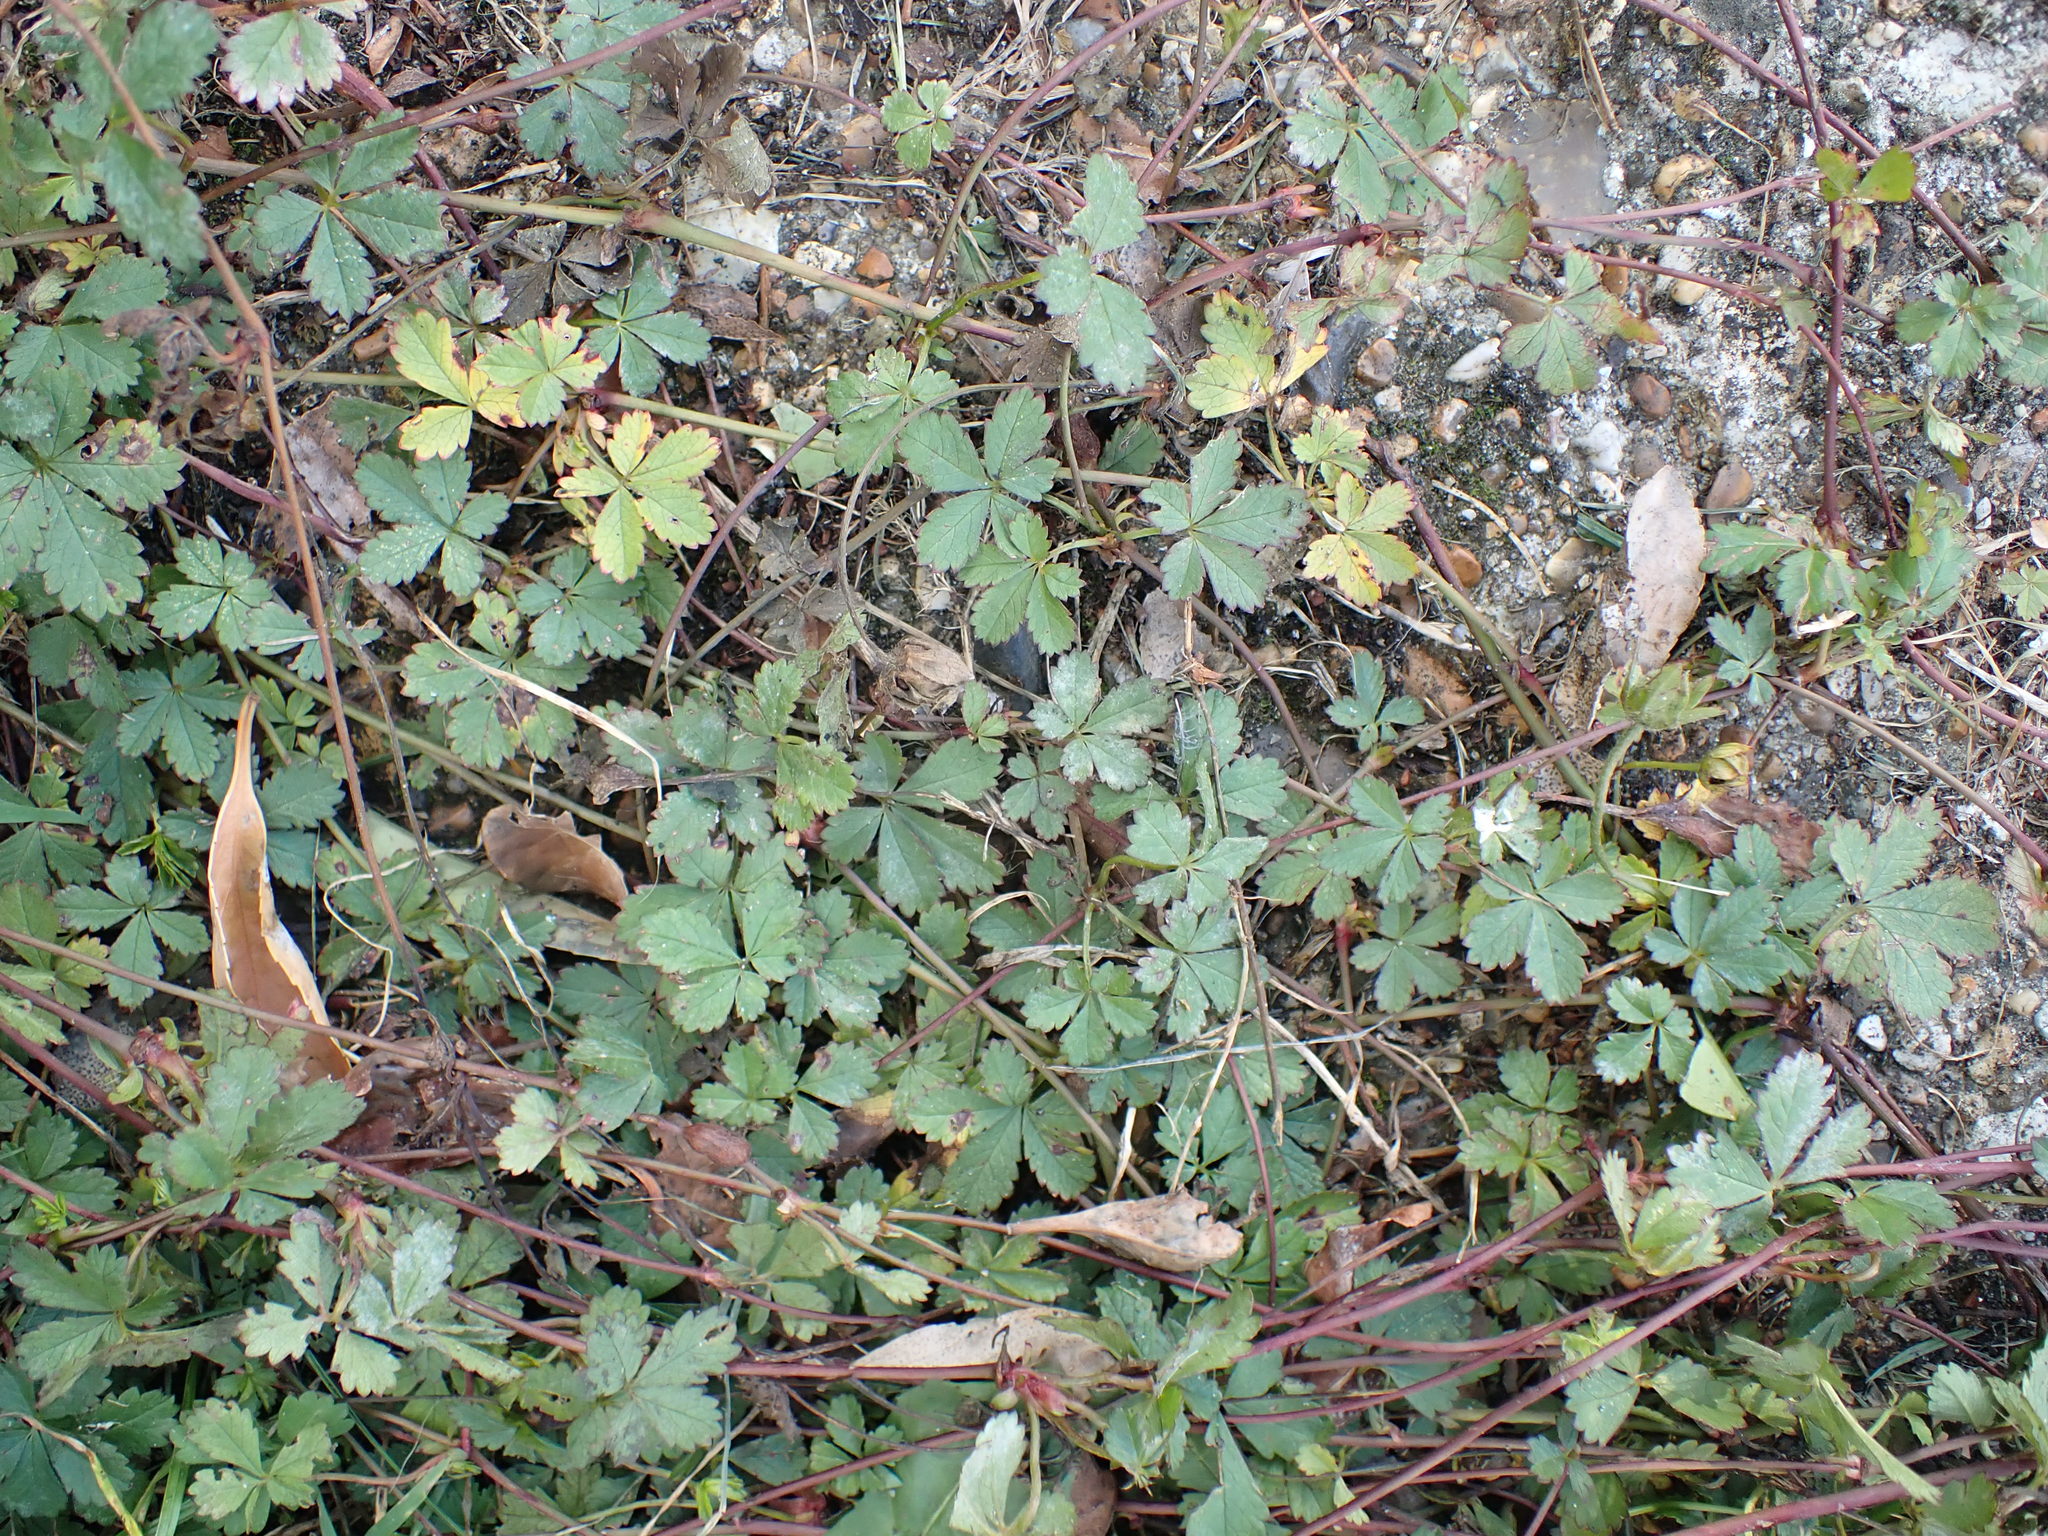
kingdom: Plantae
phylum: Tracheophyta
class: Magnoliopsida
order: Rosales
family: Rosaceae
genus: Potentilla
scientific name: Potentilla reptans
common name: Creeping cinquefoil
